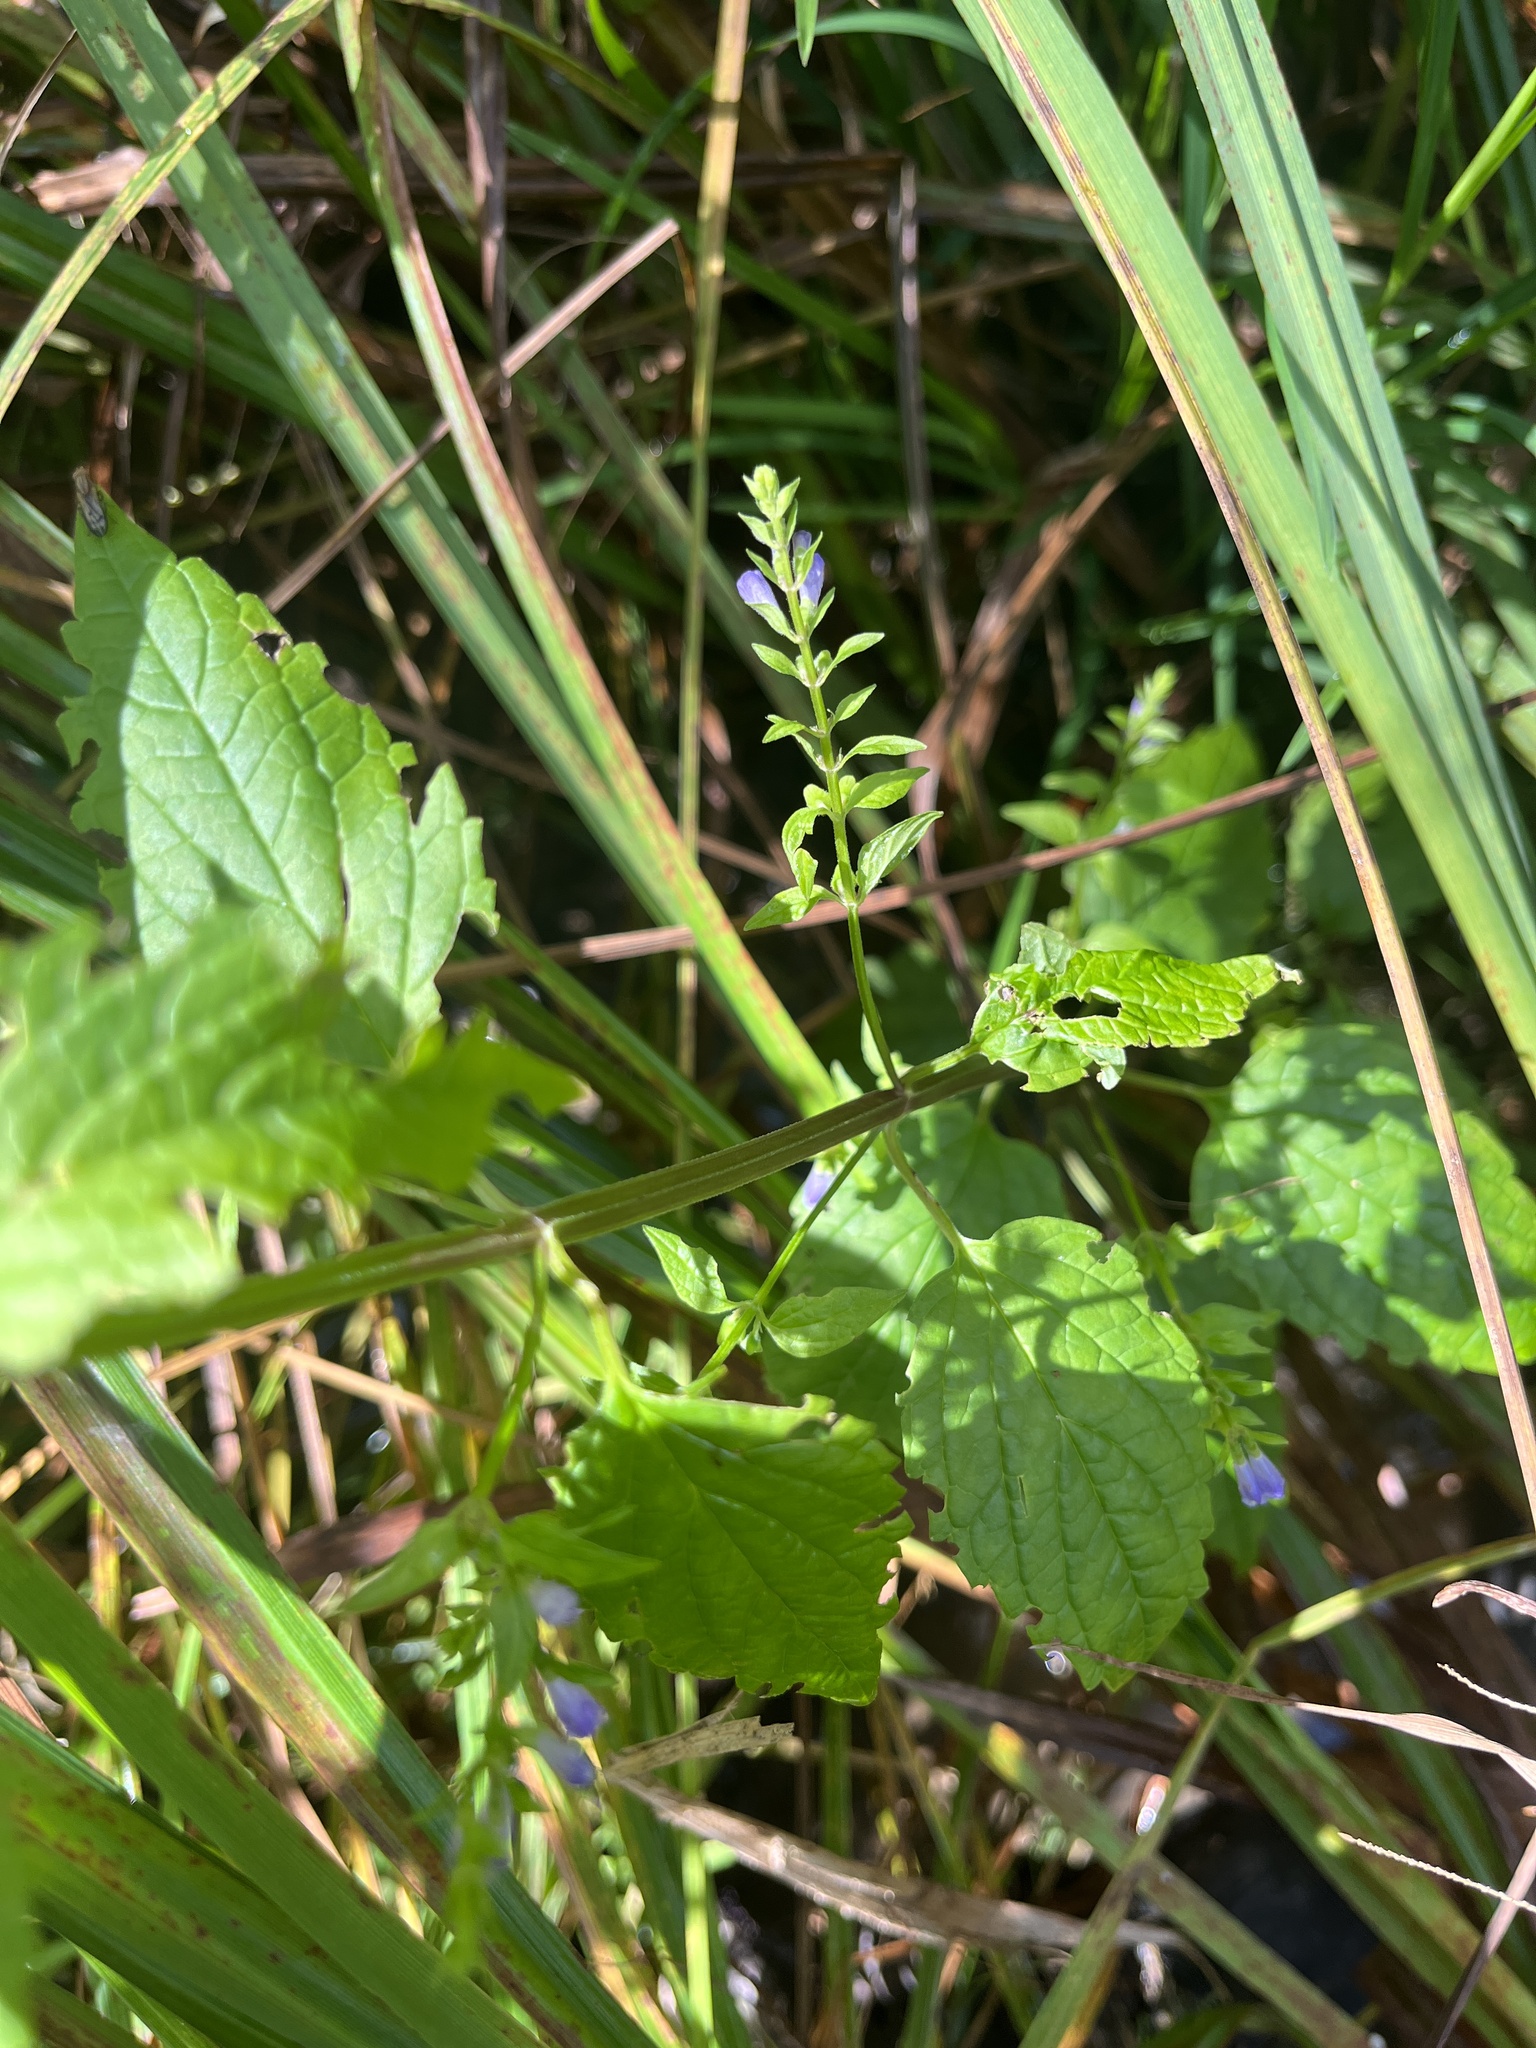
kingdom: Plantae
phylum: Tracheophyta
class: Magnoliopsida
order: Lamiales
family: Lamiaceae
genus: Scutellaria
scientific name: Scutellaria lateriflora
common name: Blue skullcap
